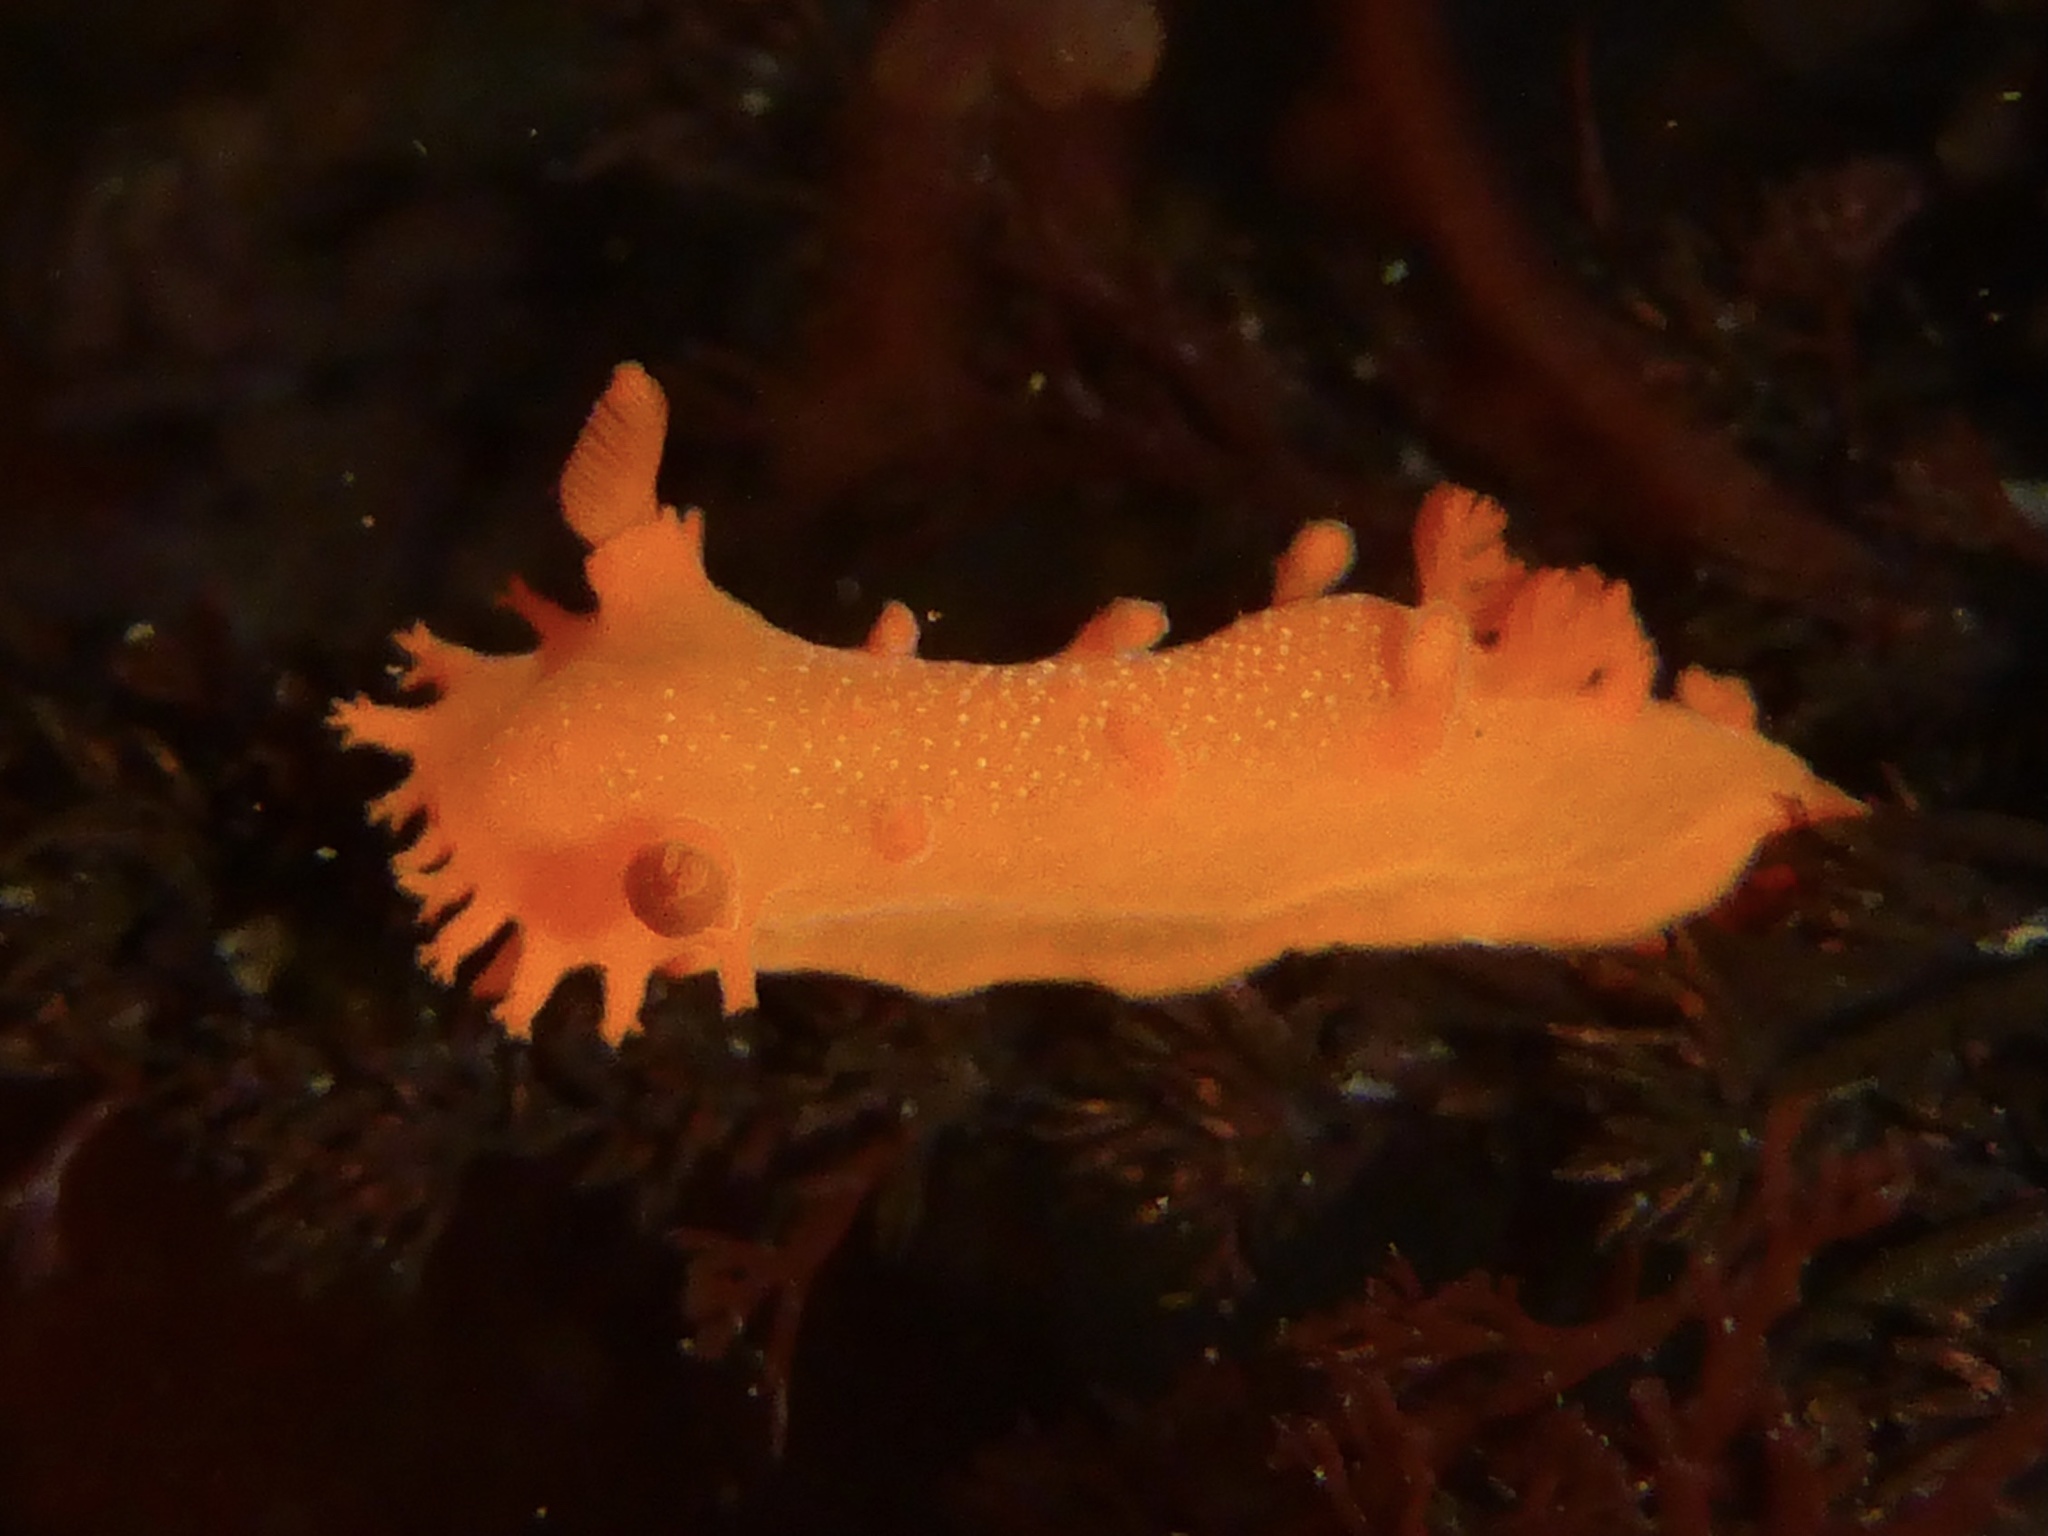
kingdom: Animalia
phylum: Mollusca
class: Gastropoda
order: Nudibranchia
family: Polyceridae
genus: Triopha
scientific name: Triopha maculata
